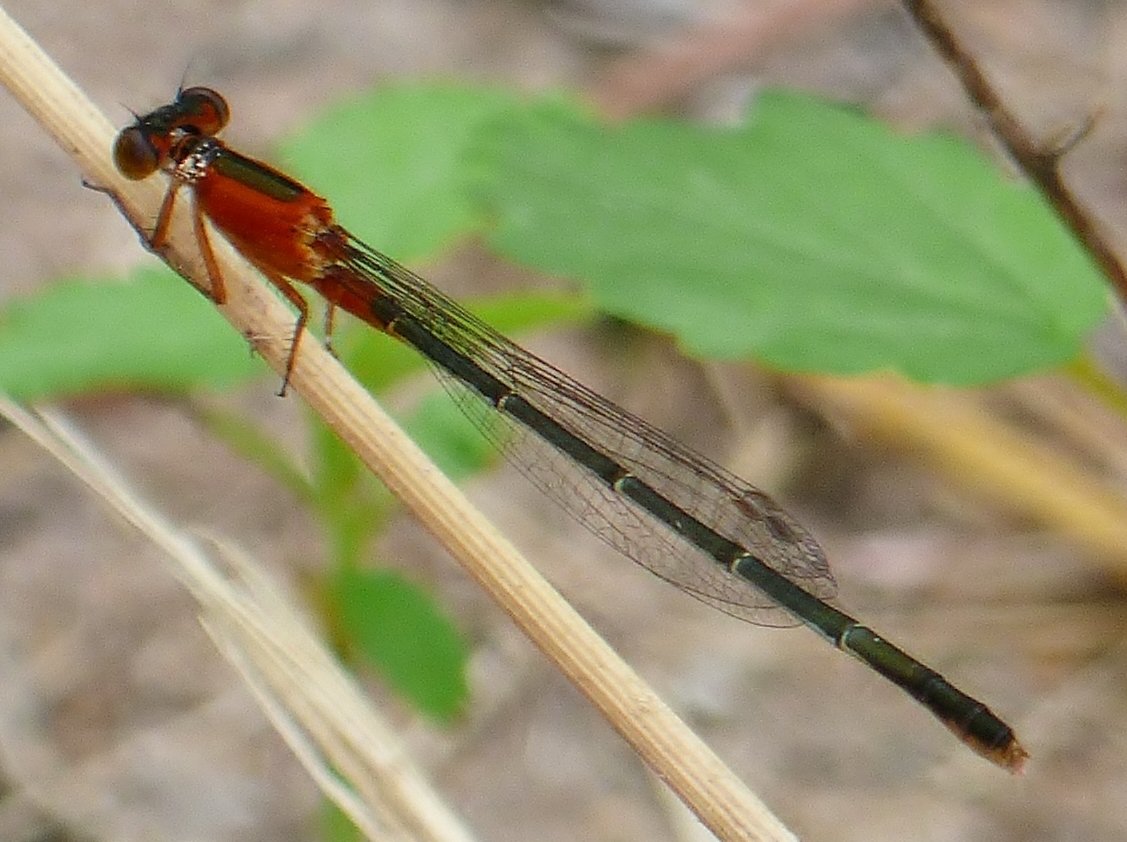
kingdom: Animalia
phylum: Arthropoda
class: Insecta
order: Odonata
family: Coenagrionidae
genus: Ischnura
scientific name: Ischnura ramburii
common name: Rambur's forktail
